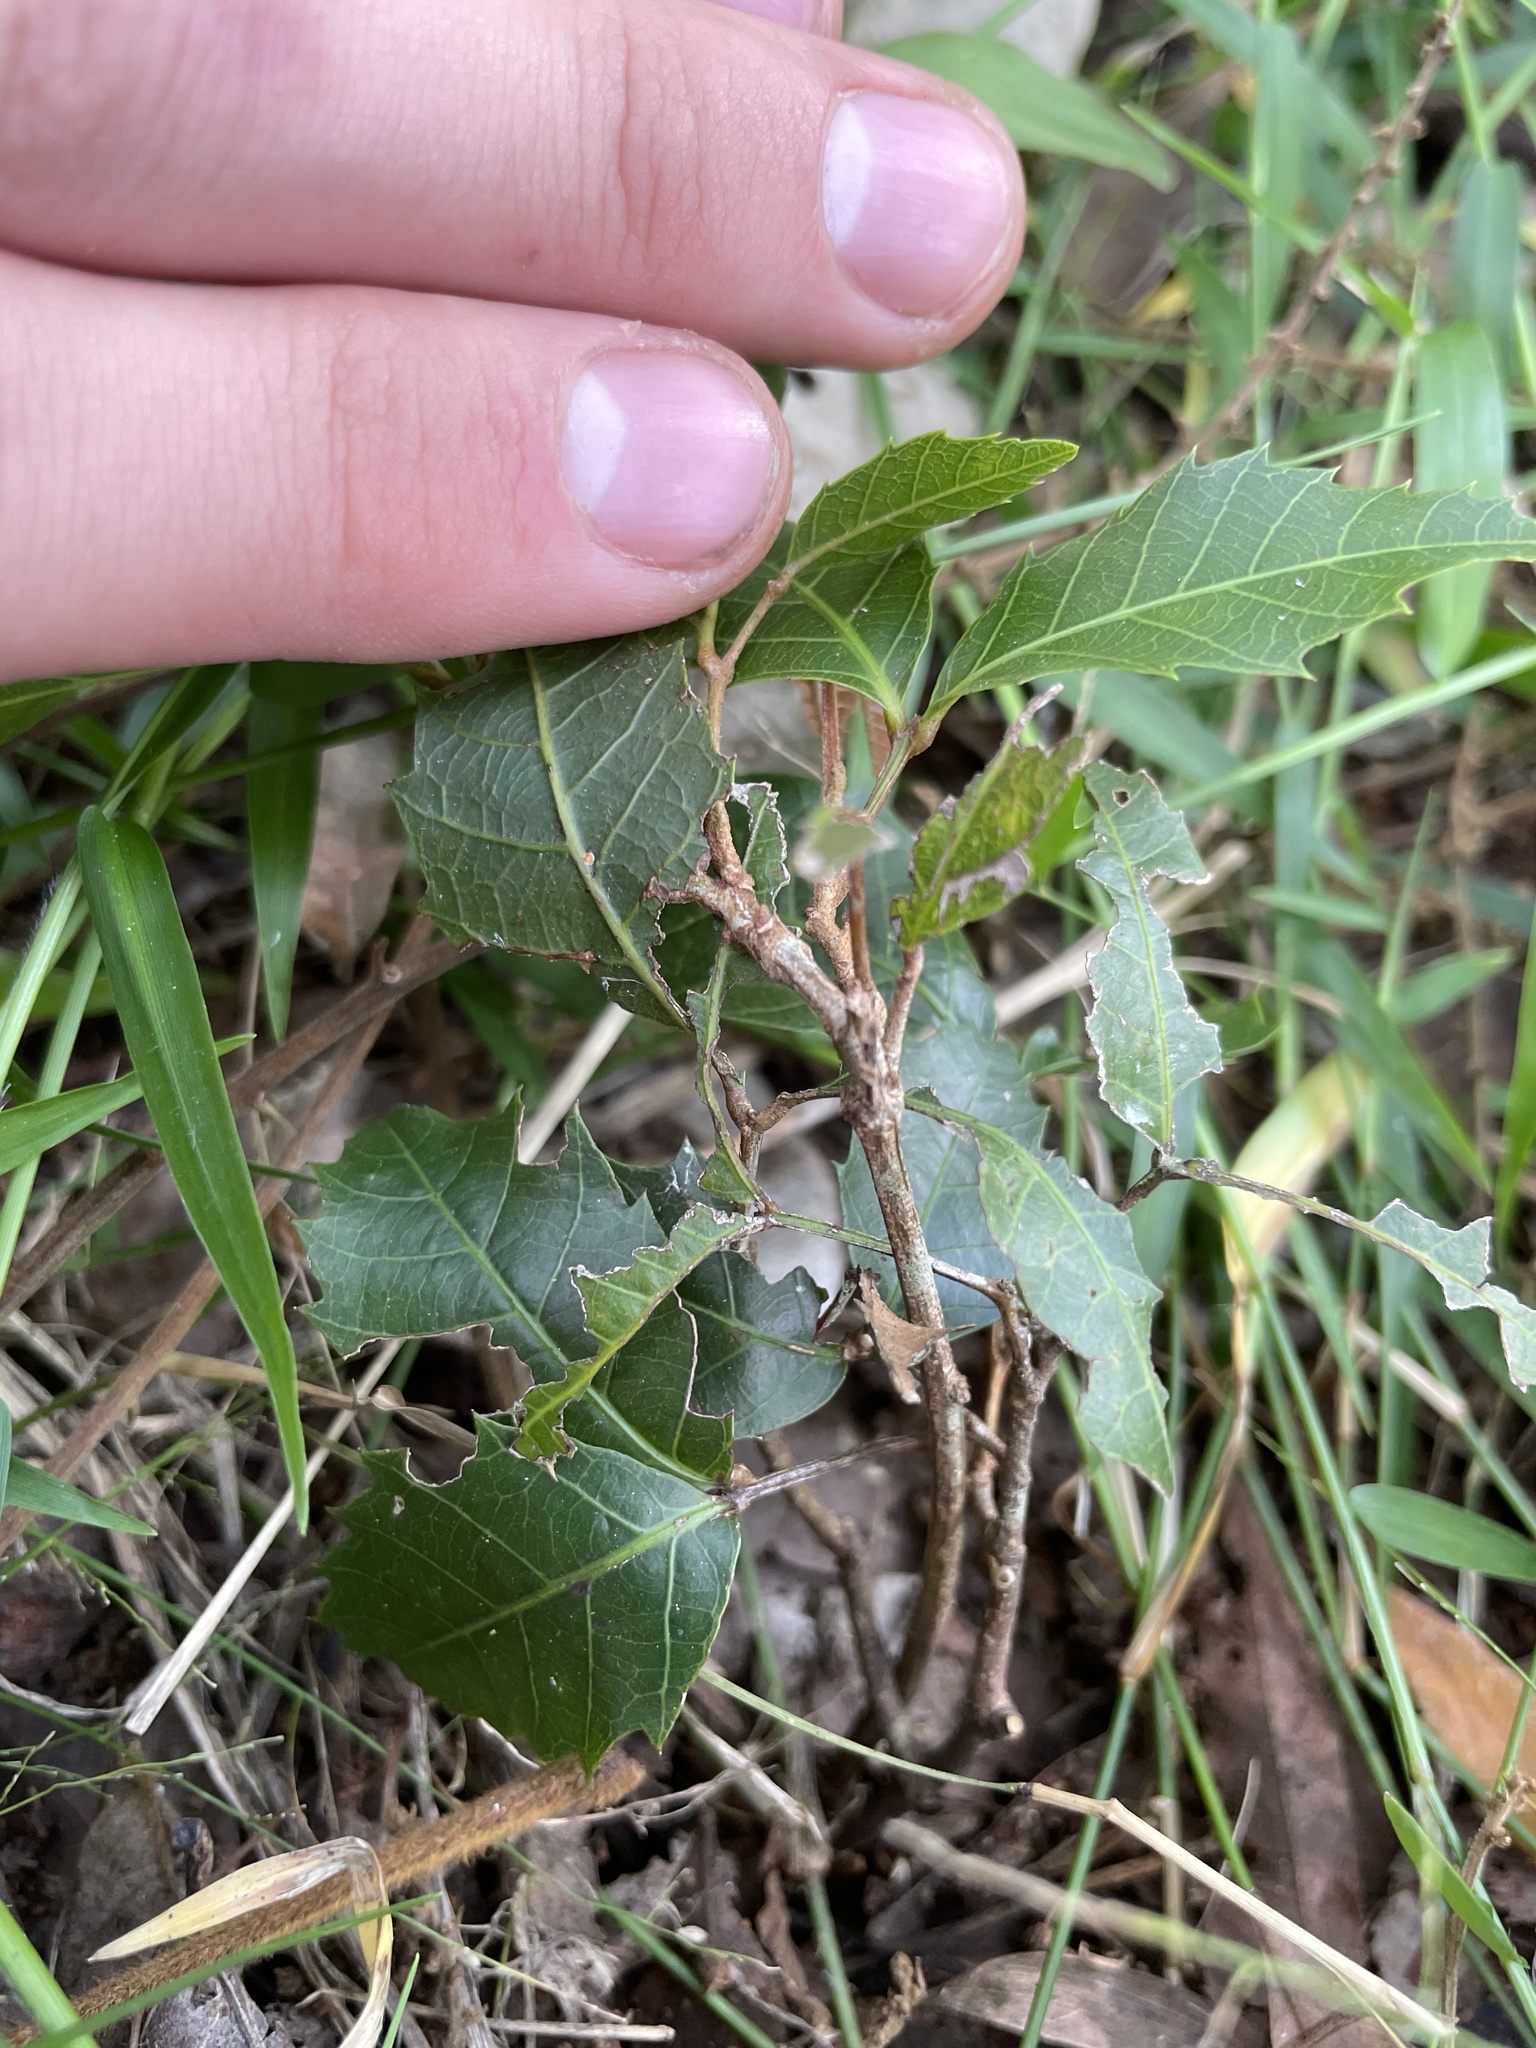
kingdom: Plantae
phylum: Tracheophyta
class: Magnoliopsida
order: Sapindales
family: Sapindaceae
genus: Arytera
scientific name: Arytera foveolata
